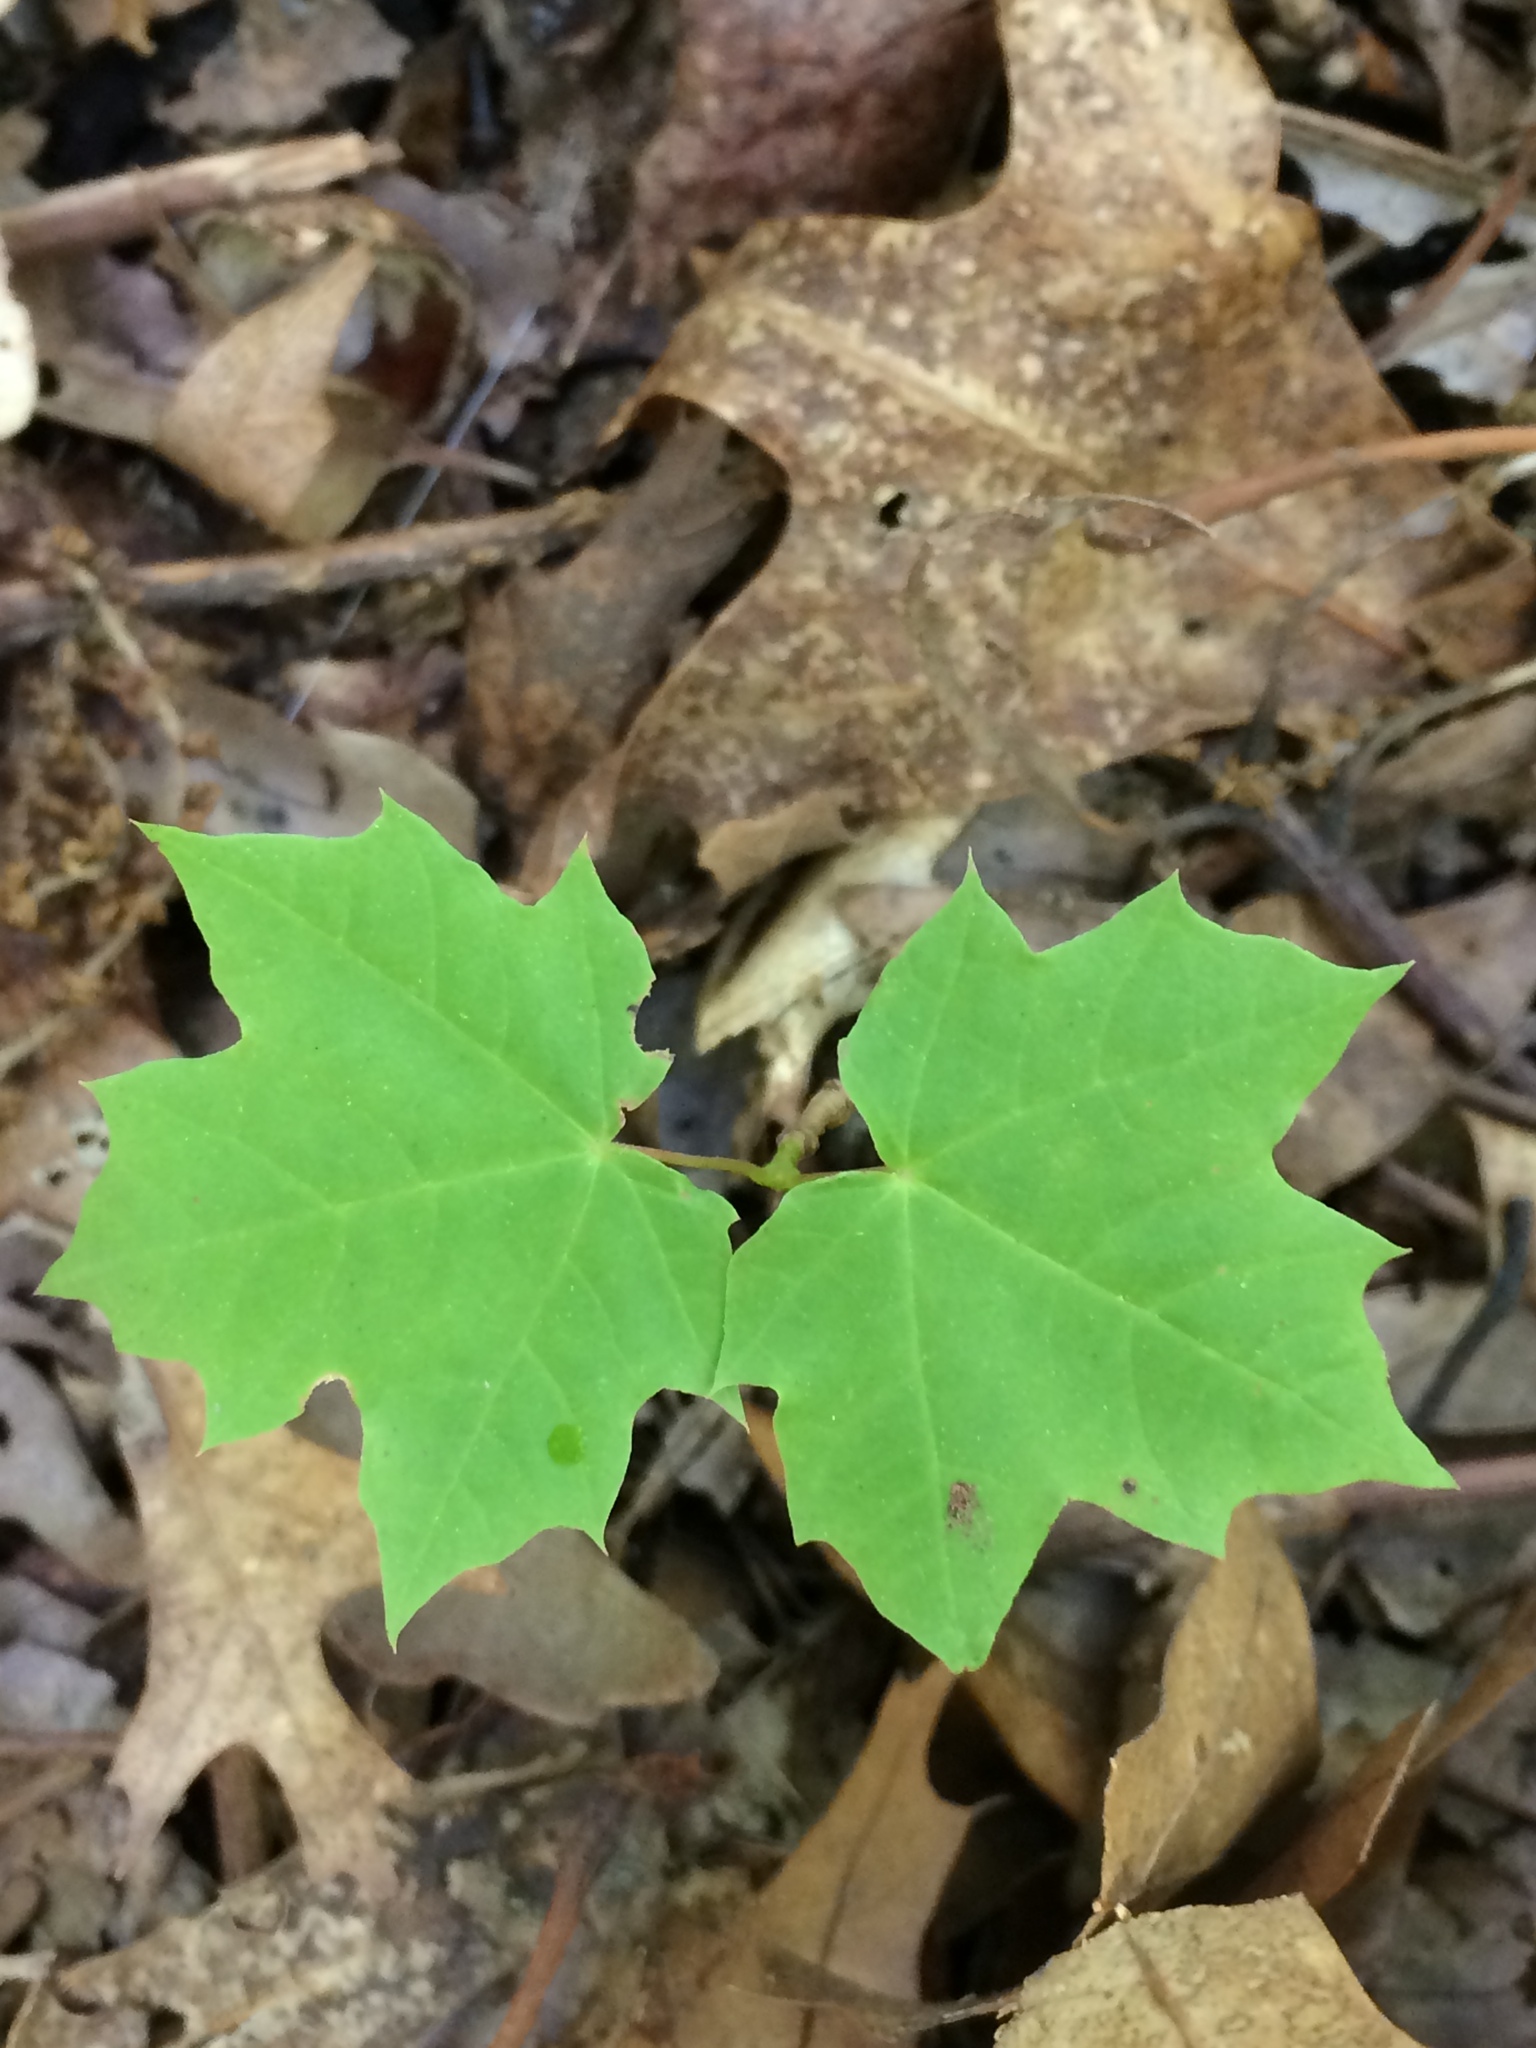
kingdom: Plantae
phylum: Tracheophyta
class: Magnoliopsida
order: Sapindales
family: Sapindaceae
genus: Acer
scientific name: Acer platanoides
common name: Norway maple
